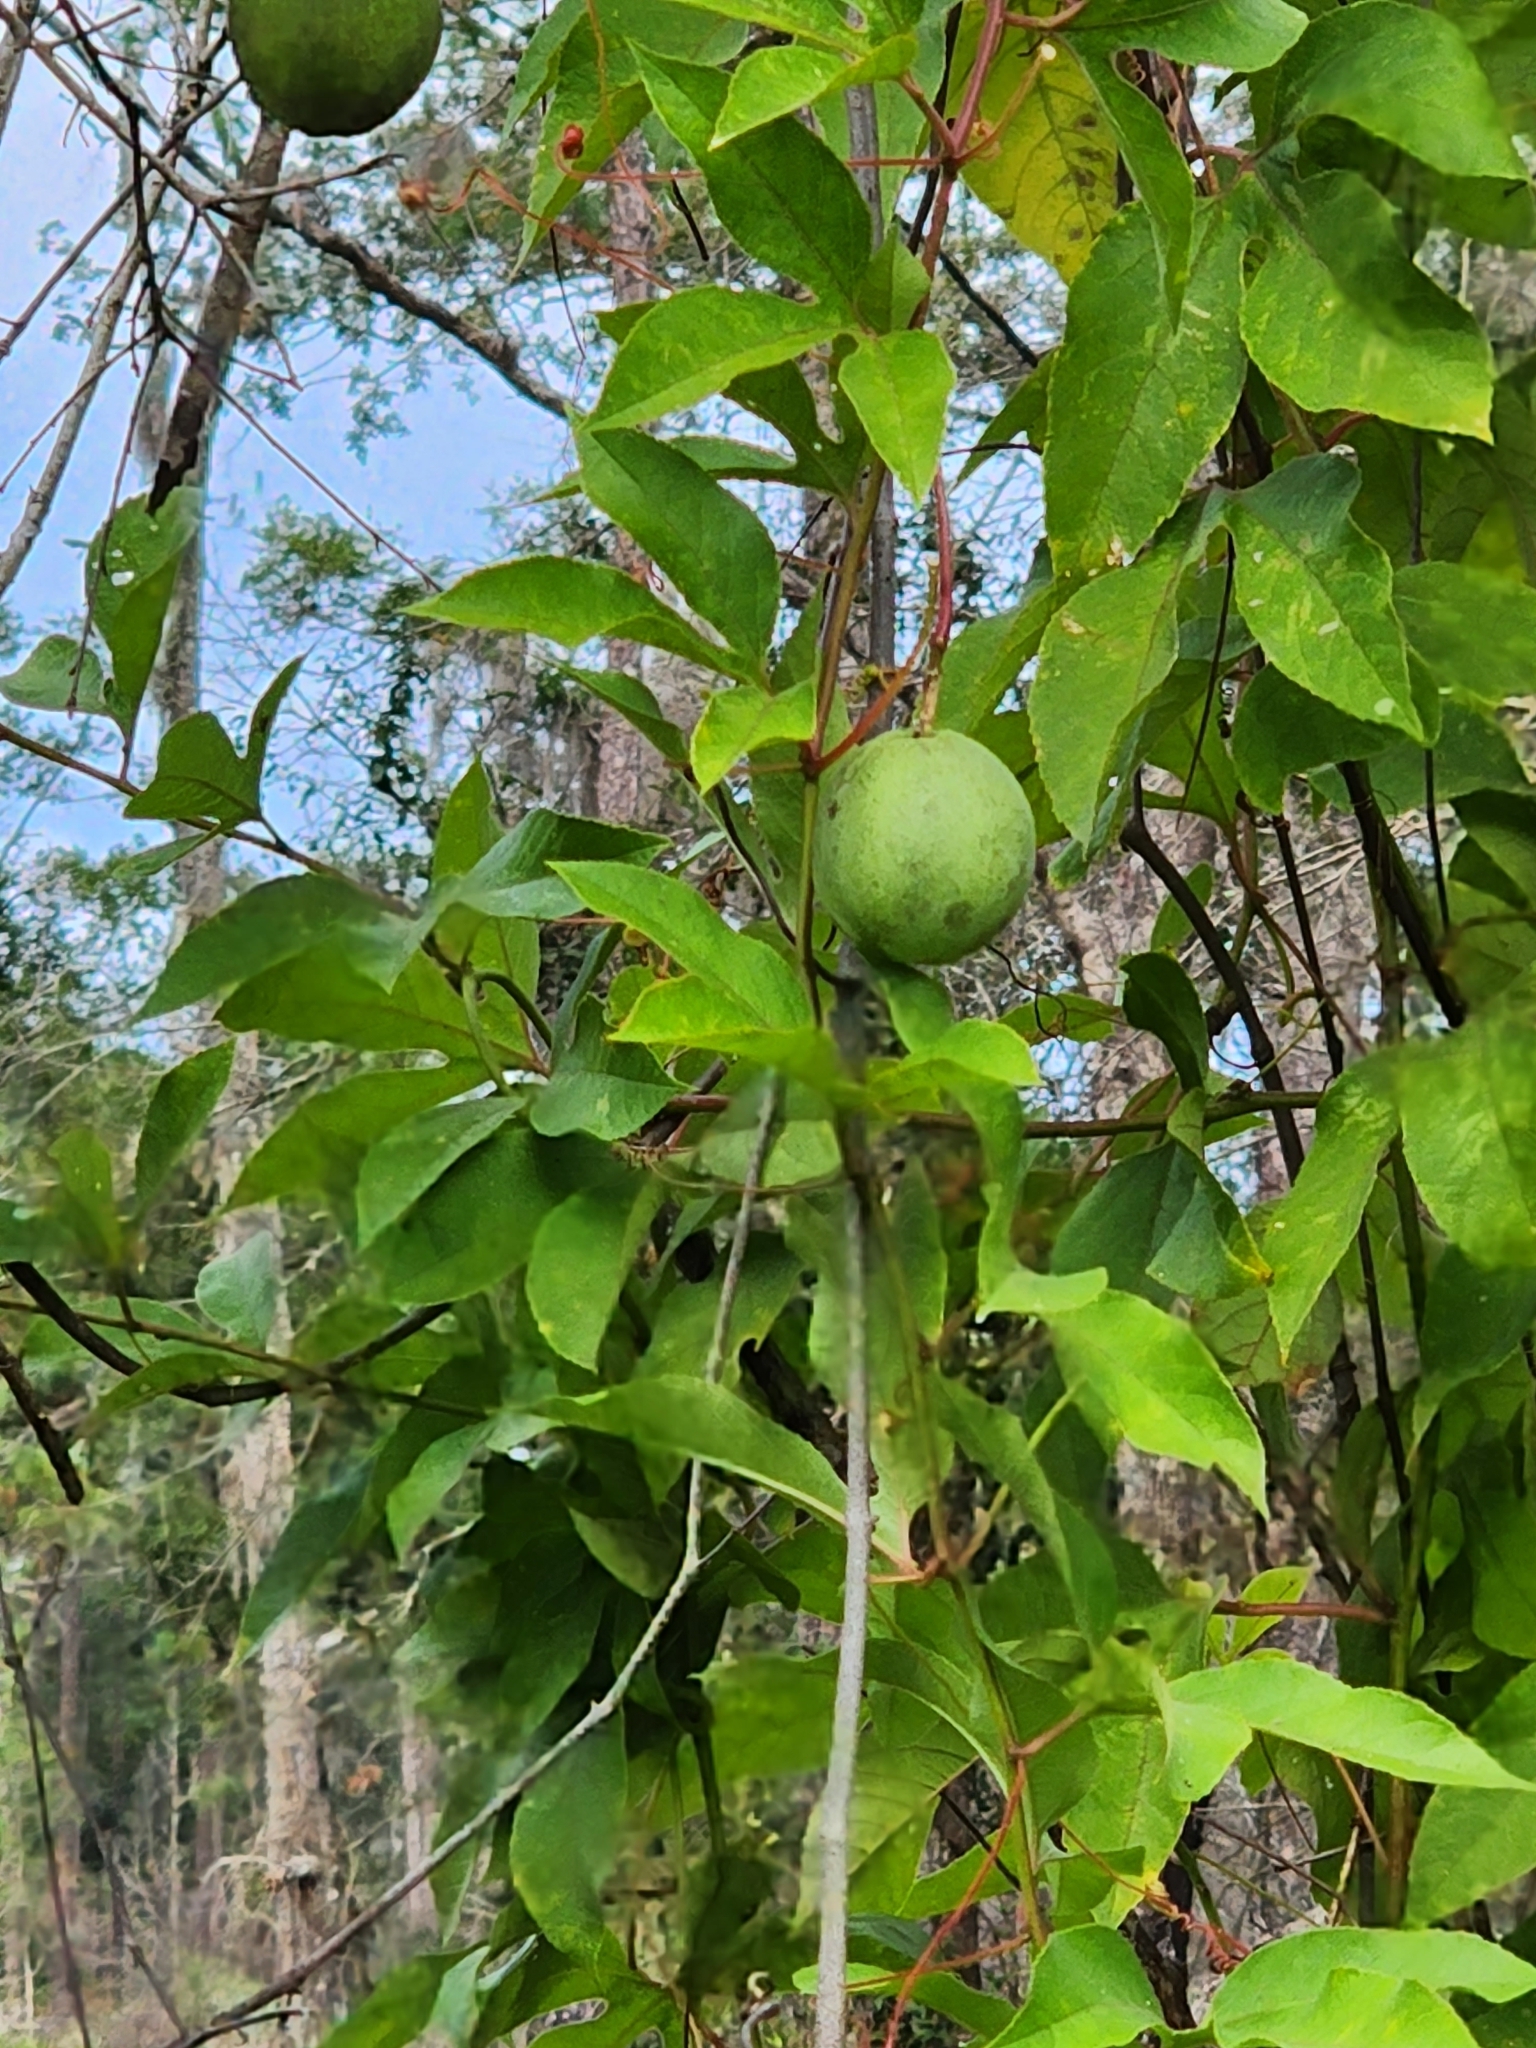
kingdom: Plantae
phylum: Tracheophyta
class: Magnoliopsida
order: Malpighiales
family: Passifloraceae
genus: Passiflora
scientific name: Passiflora incarnata
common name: Apricot-vine
